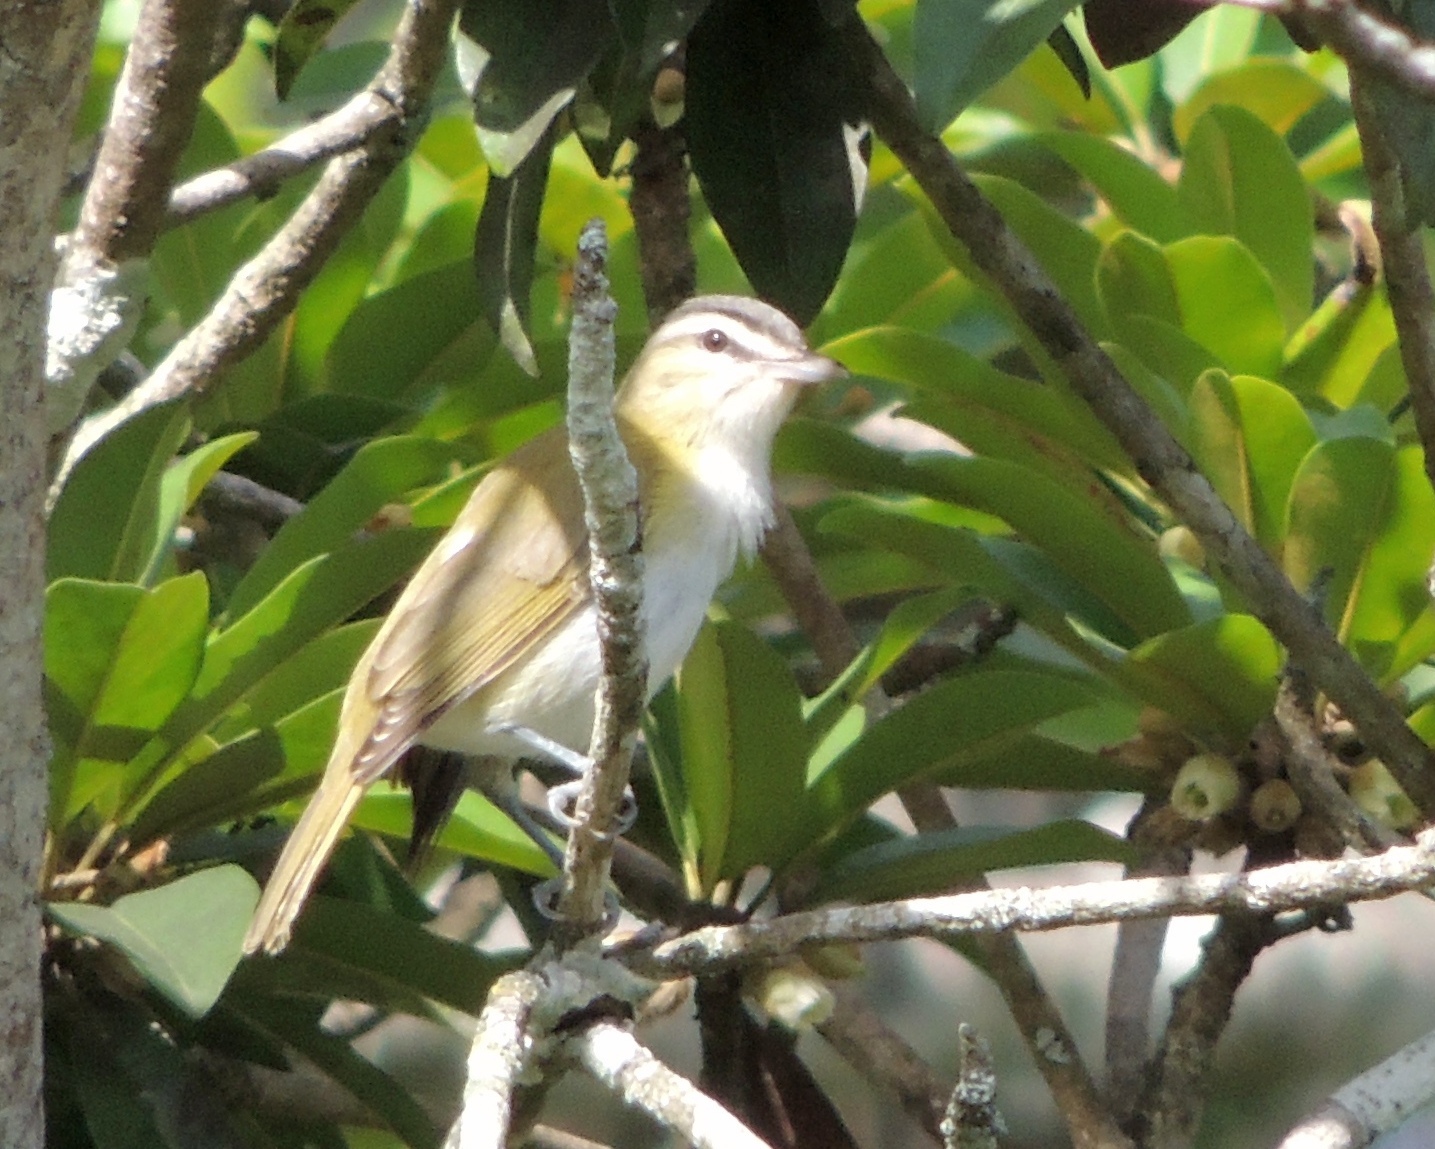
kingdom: Animalia
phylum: Chordata
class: Aves
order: Passeriformes
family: Vireonidae
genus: Vireo
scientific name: Vireo olivaceus
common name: Red-eyed vireo
